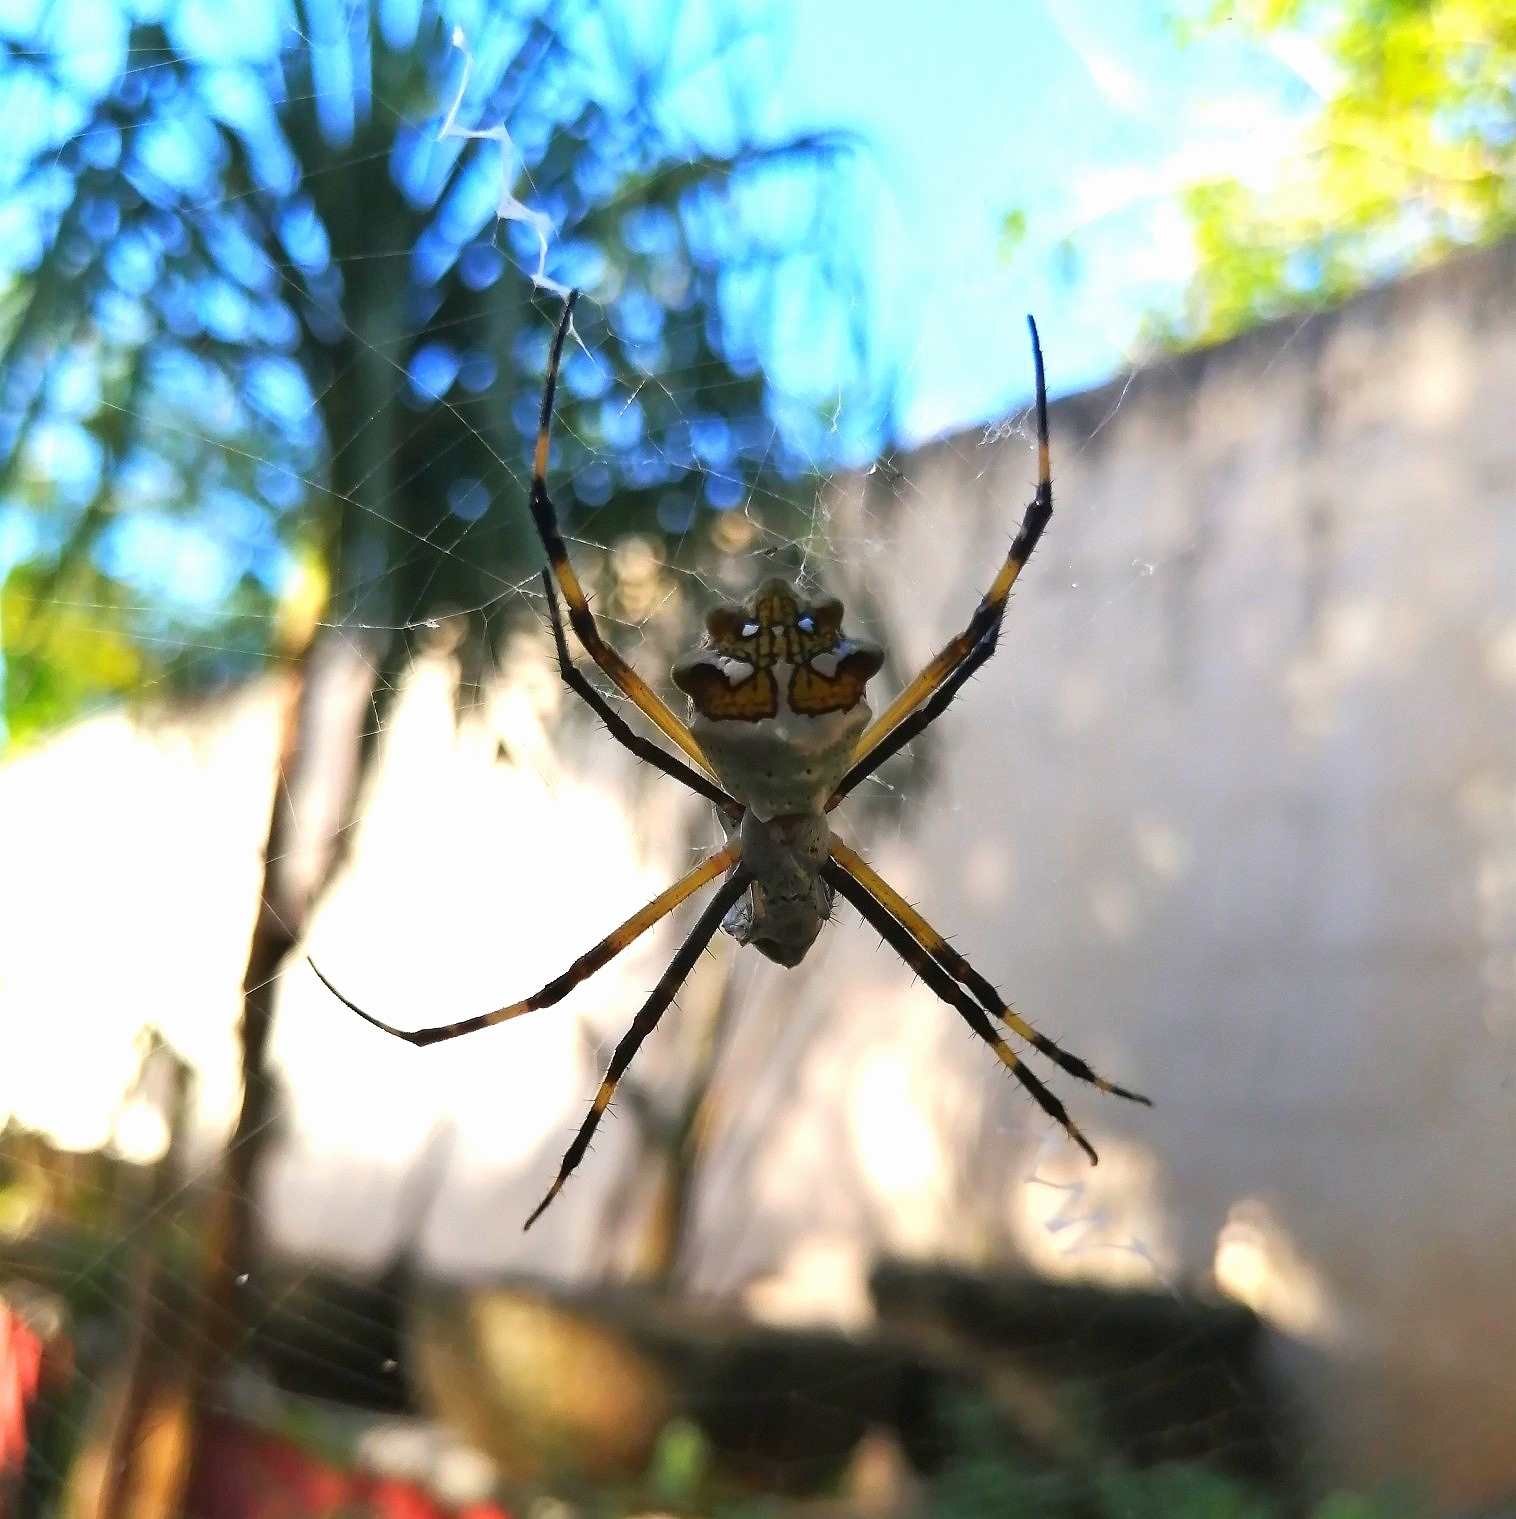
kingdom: Animalia
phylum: Arthropoda
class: Arachnida
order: Araneae
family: Araneidae
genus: Argiope
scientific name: Argiope argentata
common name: Orb weavers
